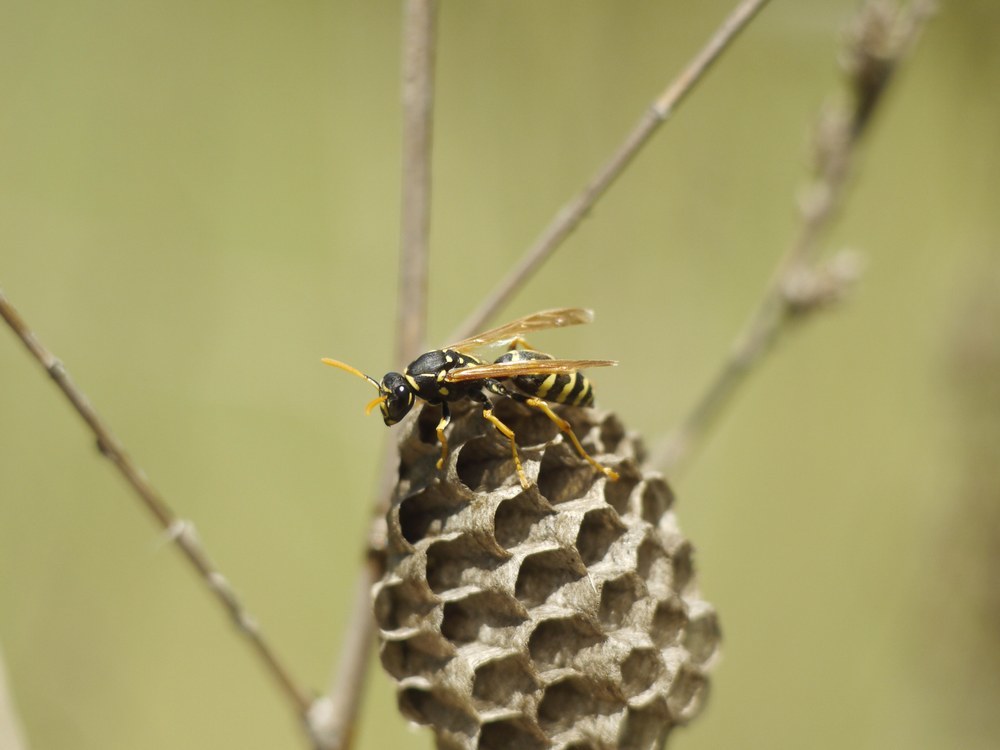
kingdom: Animalia
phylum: Arthropoda
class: Insecta
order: Hymenoptera
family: Eumenidae
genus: Polistes
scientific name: Polistes gallicus
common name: Paper wasp
